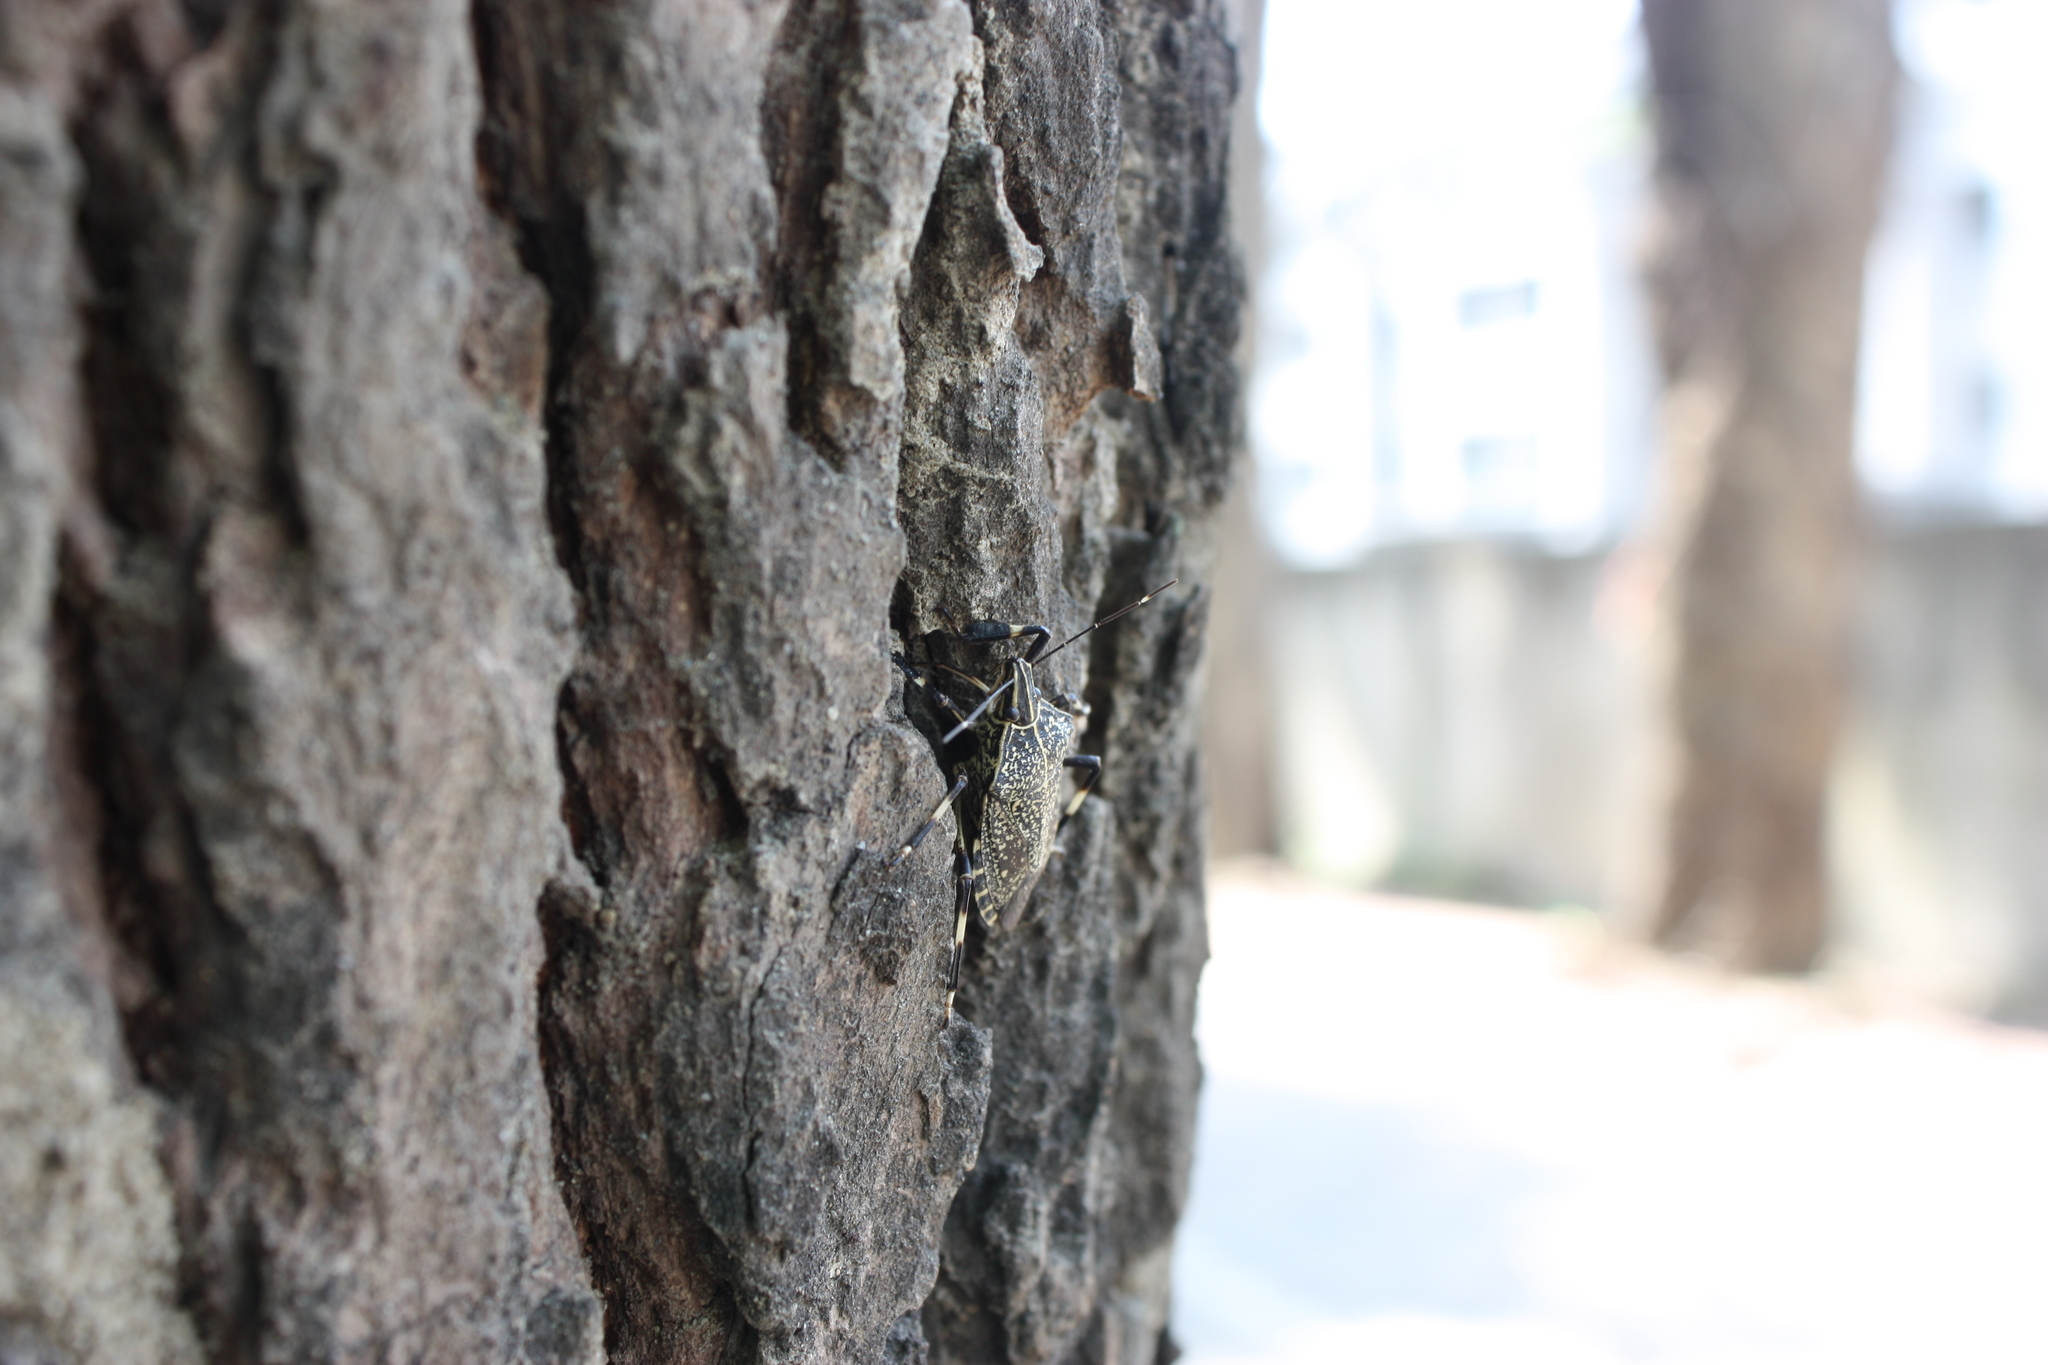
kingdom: Animalia
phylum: Arthropoda
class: Insecta
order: Hemiptera
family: Pentatomidae
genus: Erthesina
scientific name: Erthesina fullo
